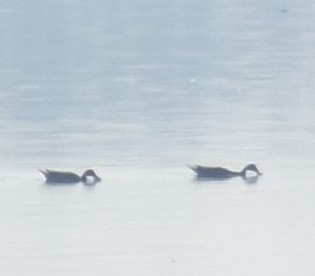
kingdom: Animalia
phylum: Chordata
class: Aves
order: Anseriformes
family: Anatidae
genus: Anas
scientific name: Anas acuta
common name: Northern pintail
